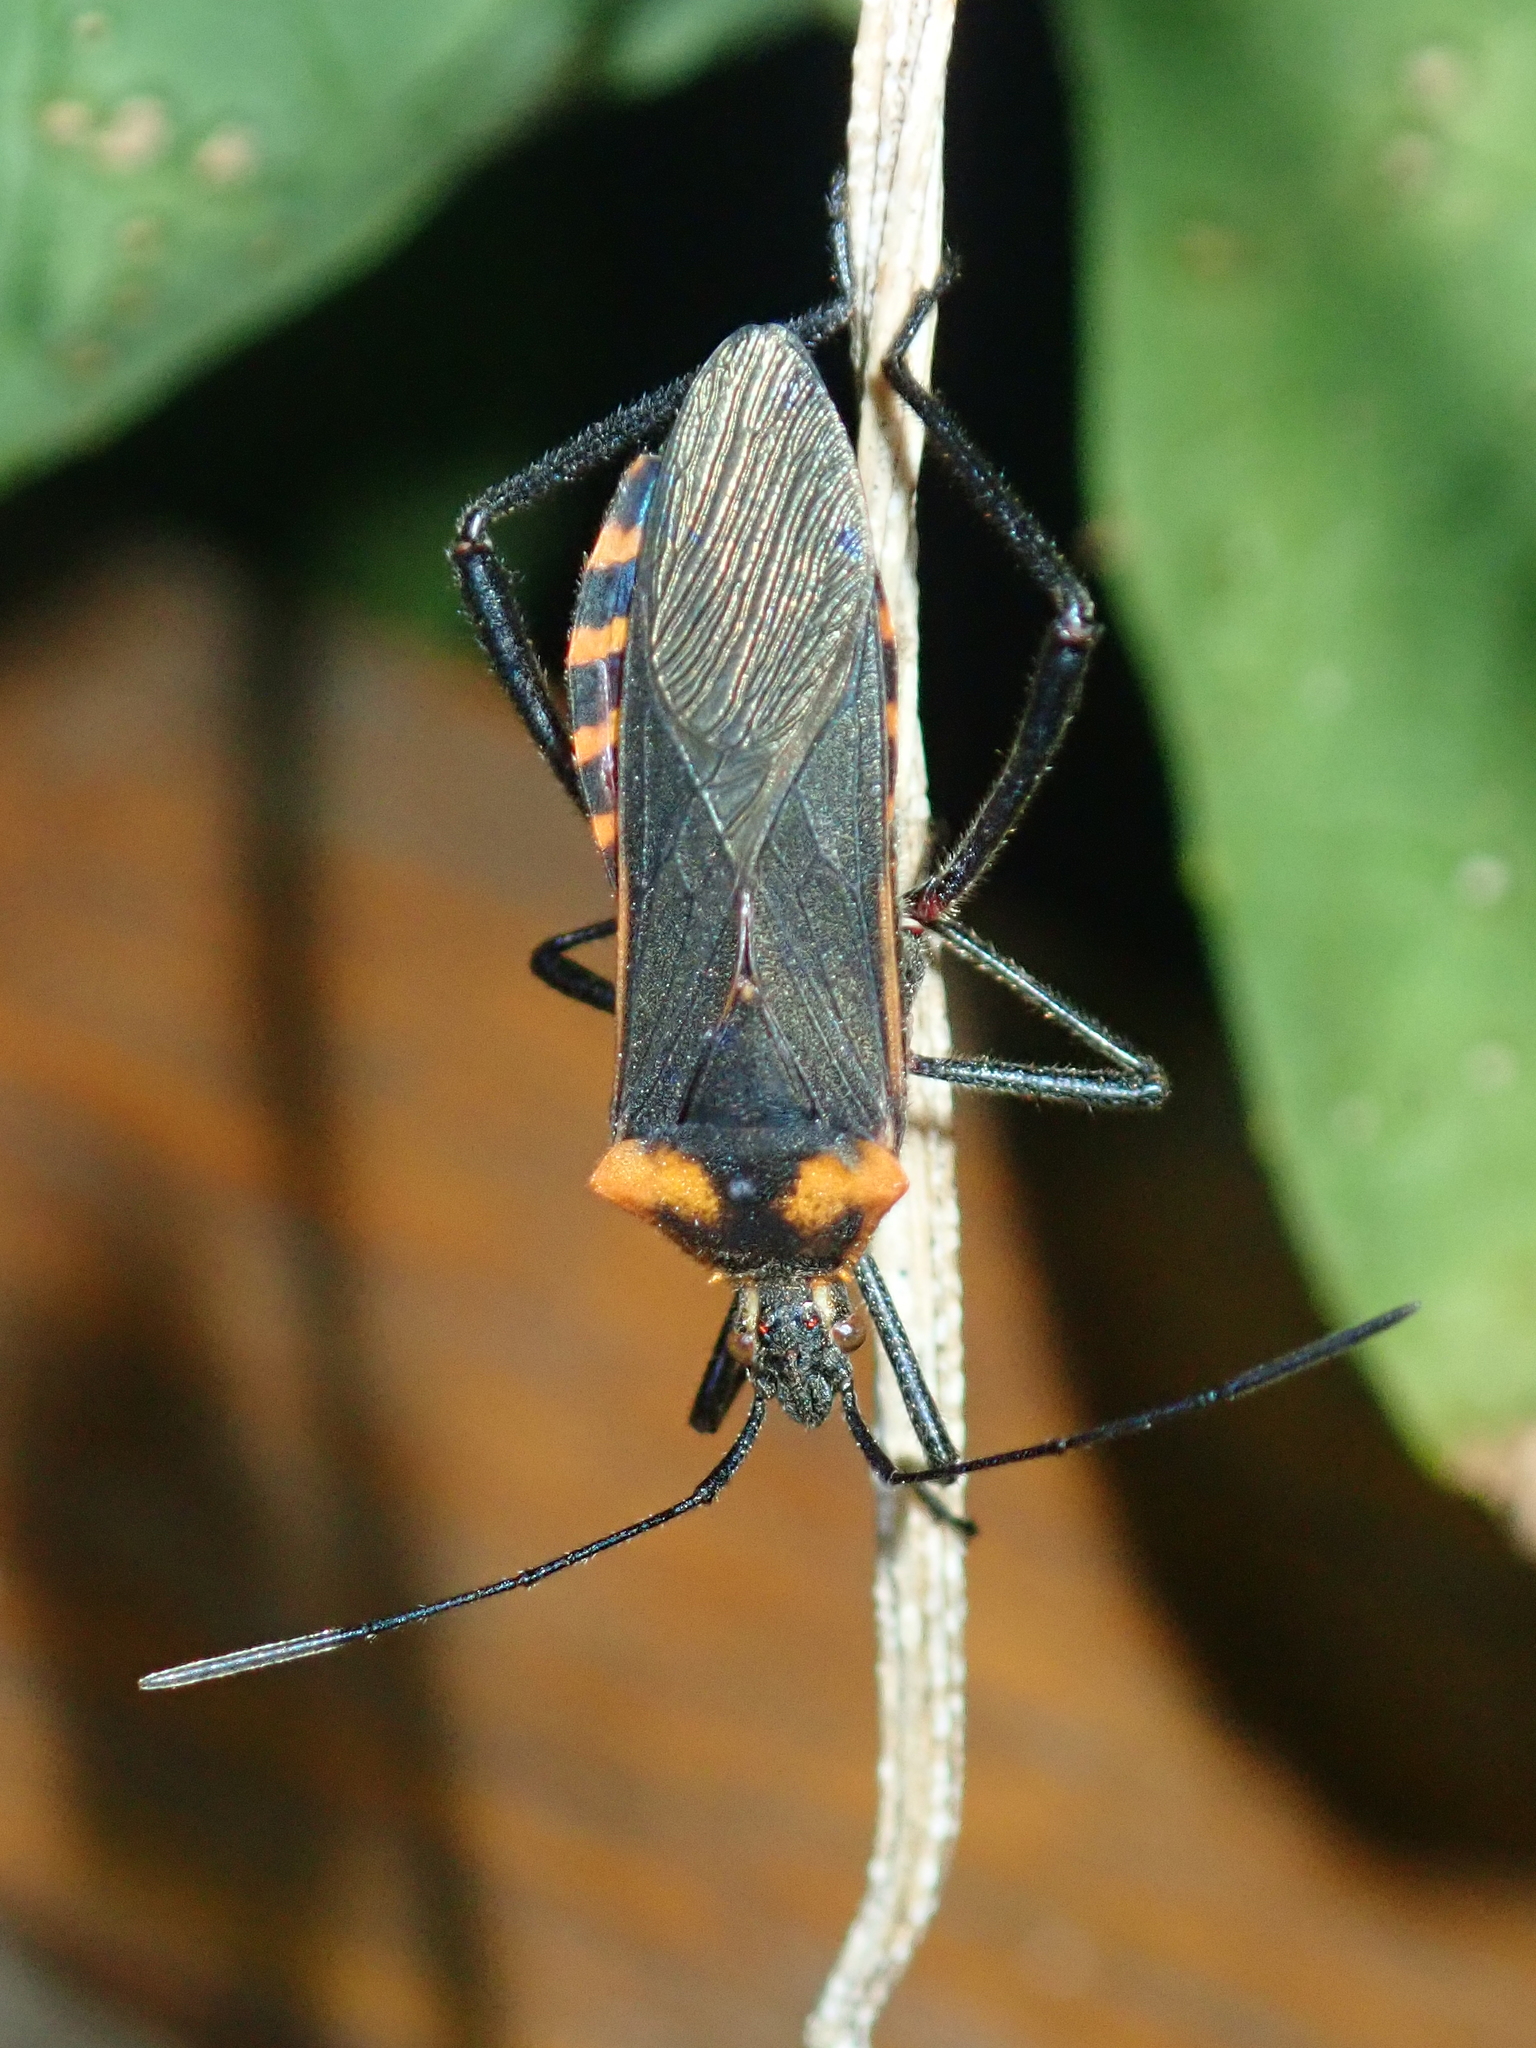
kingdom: Animalia
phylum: Arthropoda
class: Insecta
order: Hemiptera
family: Coreidae
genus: Phthiacnemia
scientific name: Phthiacnemia picta
